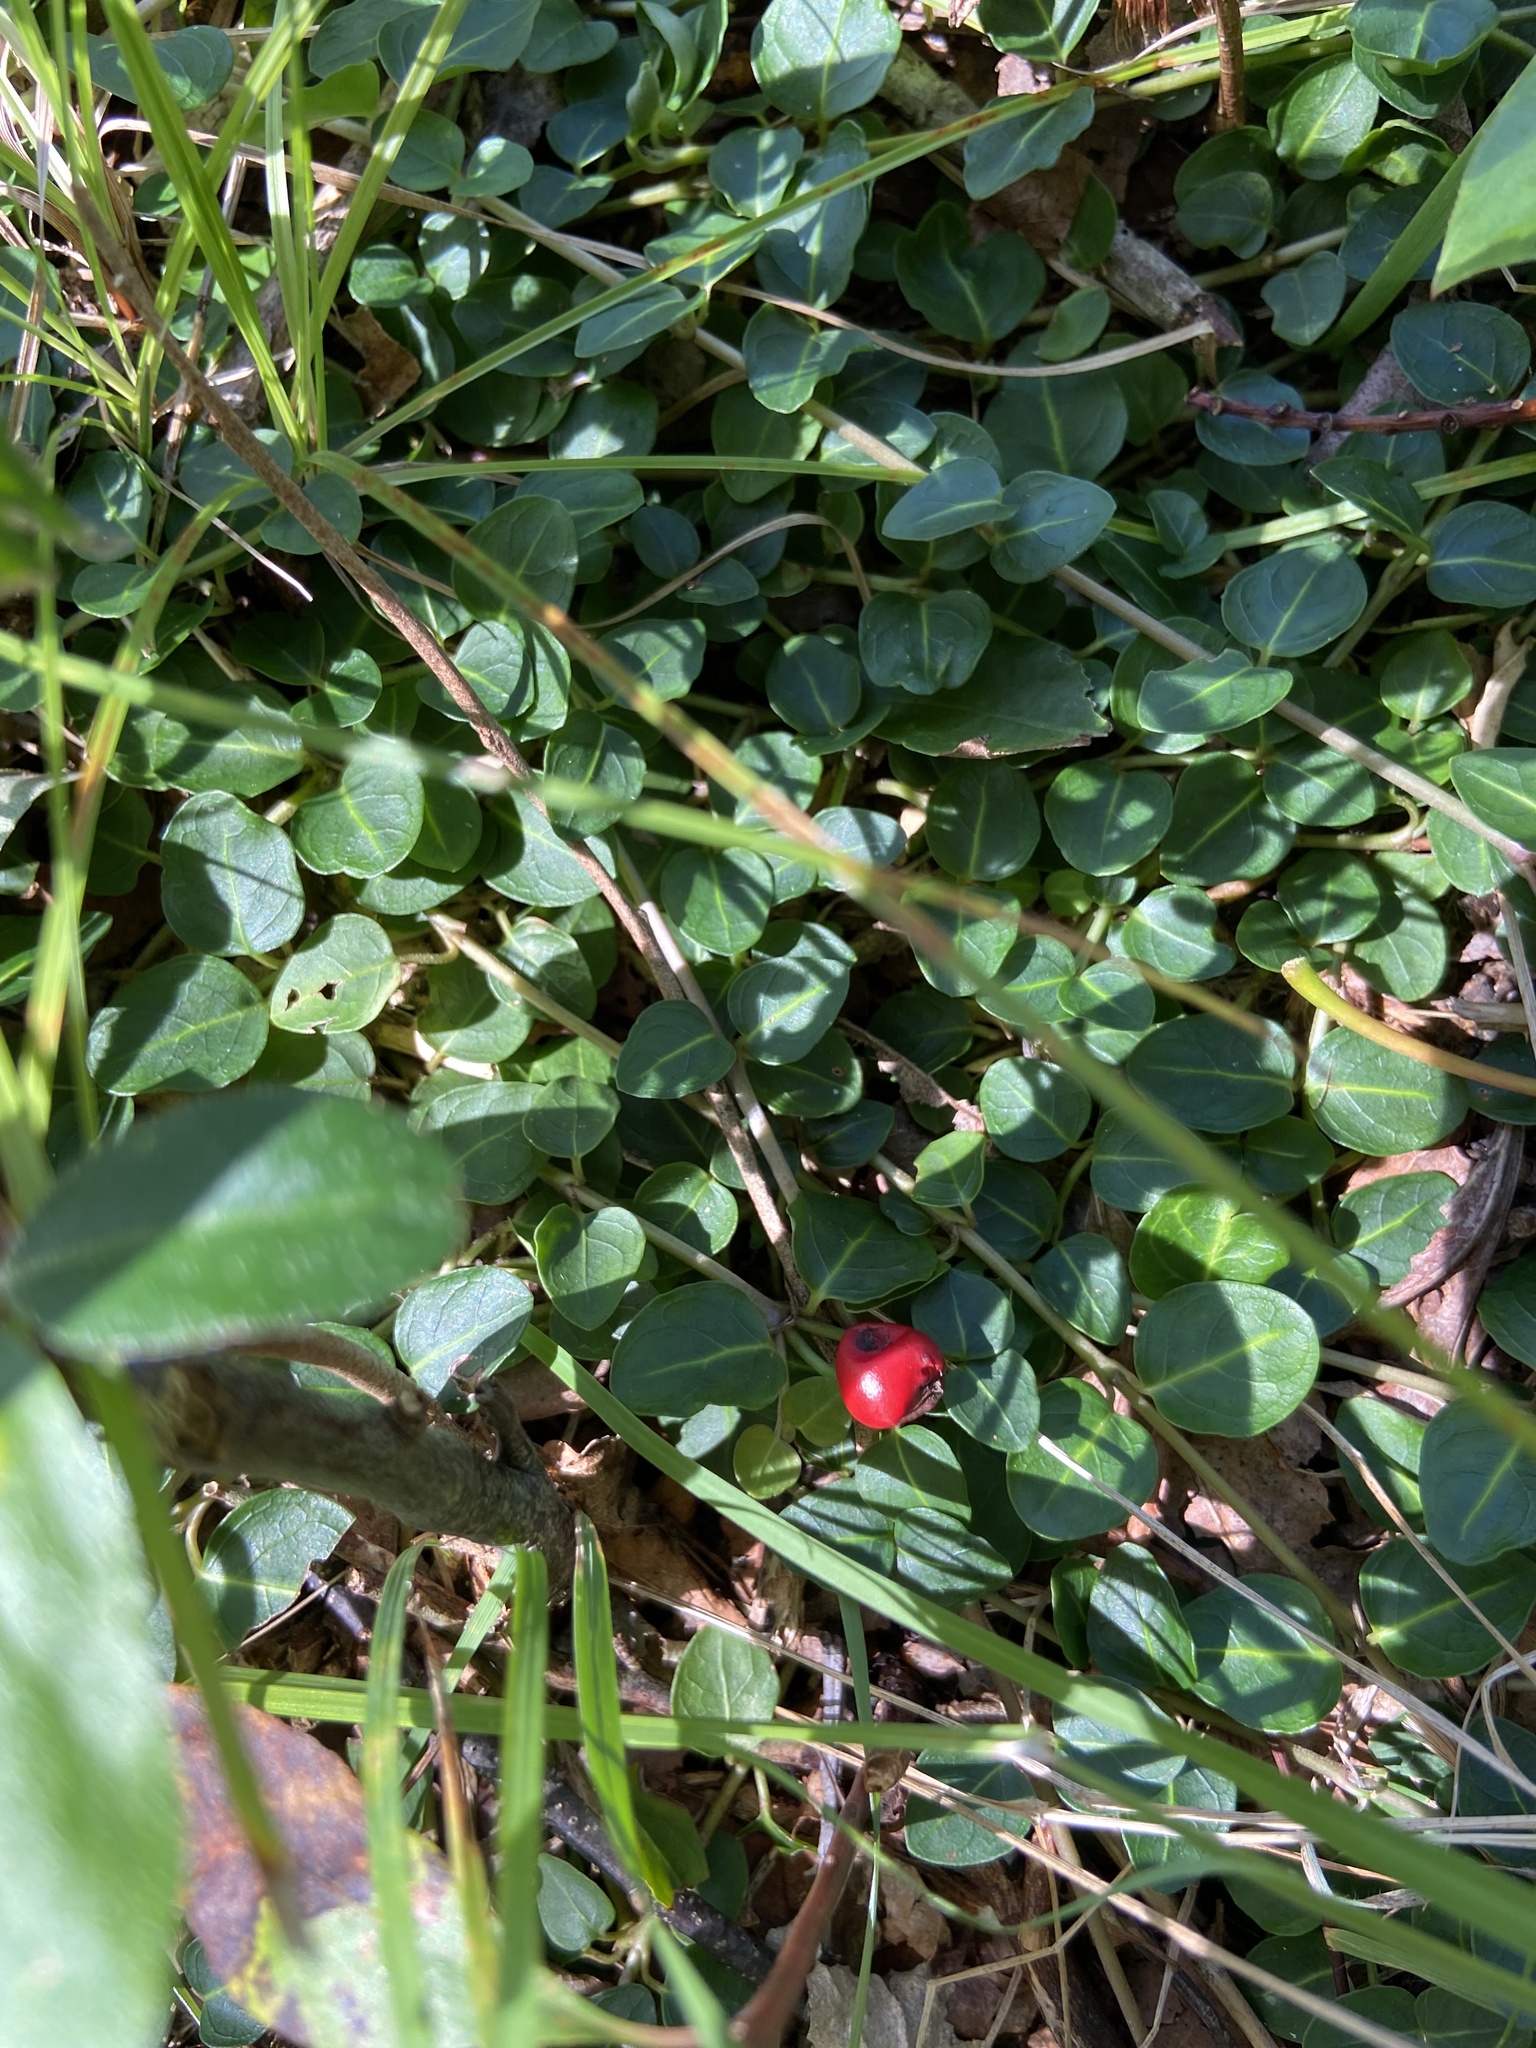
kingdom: Plantae
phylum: Tracheophyta
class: Magnoliopsida
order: Gentianales
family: Rubiaceae
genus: Mitchella
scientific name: Mitchella repens
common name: Partridge-berry
